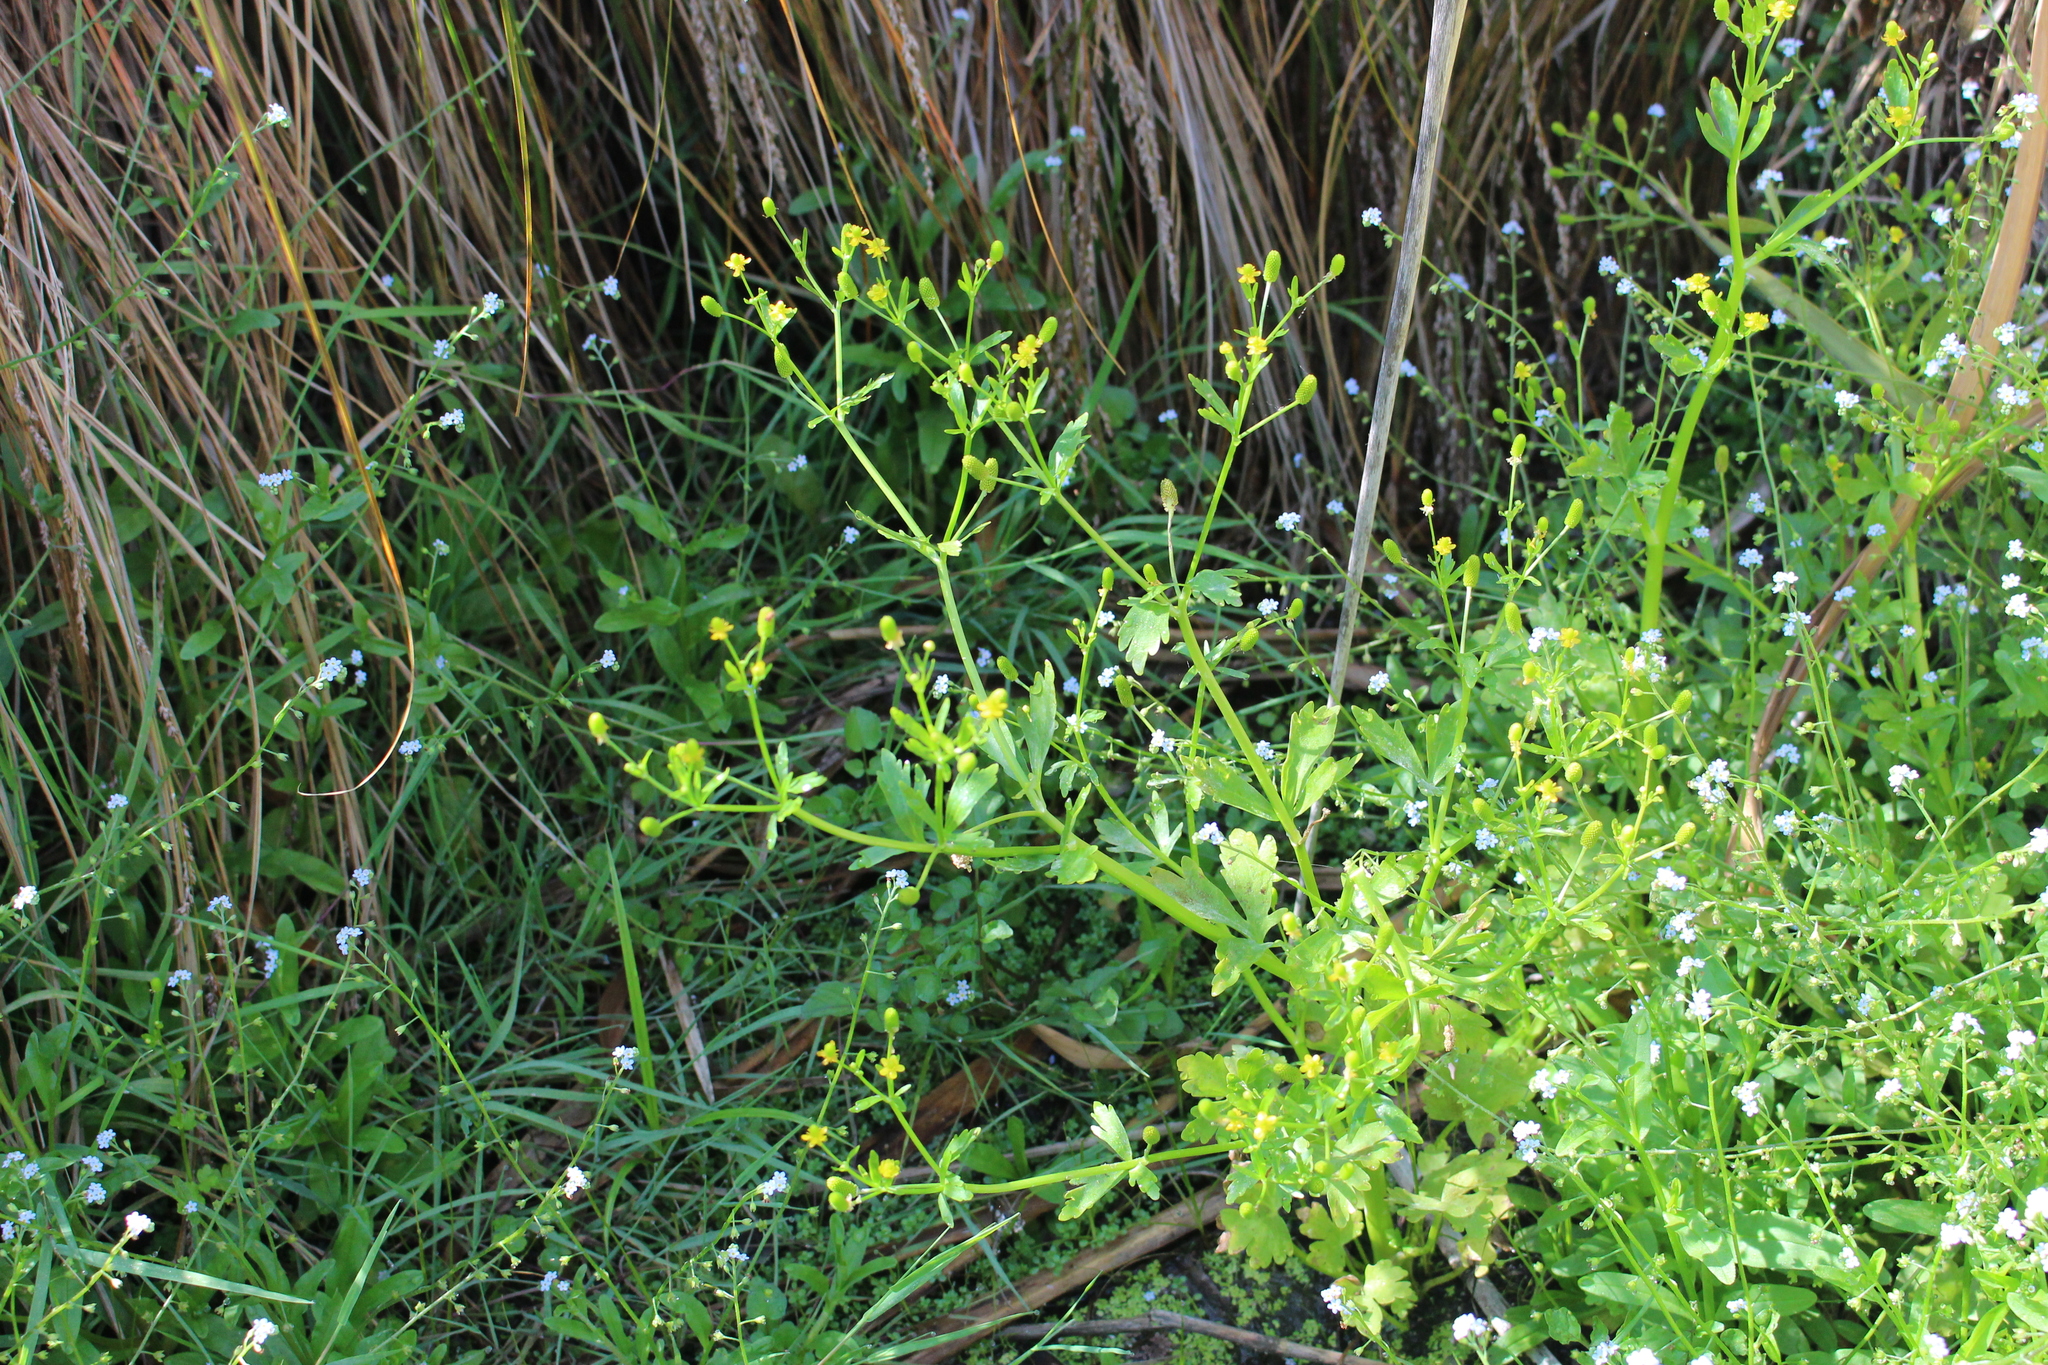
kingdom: Plantae
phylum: Tracheophyta
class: Magnoliopsida
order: Ranunculales
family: Ranunculaceae
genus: Ranunculus
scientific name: Ranunculus sceleratus
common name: Celery-leaved buttercup
